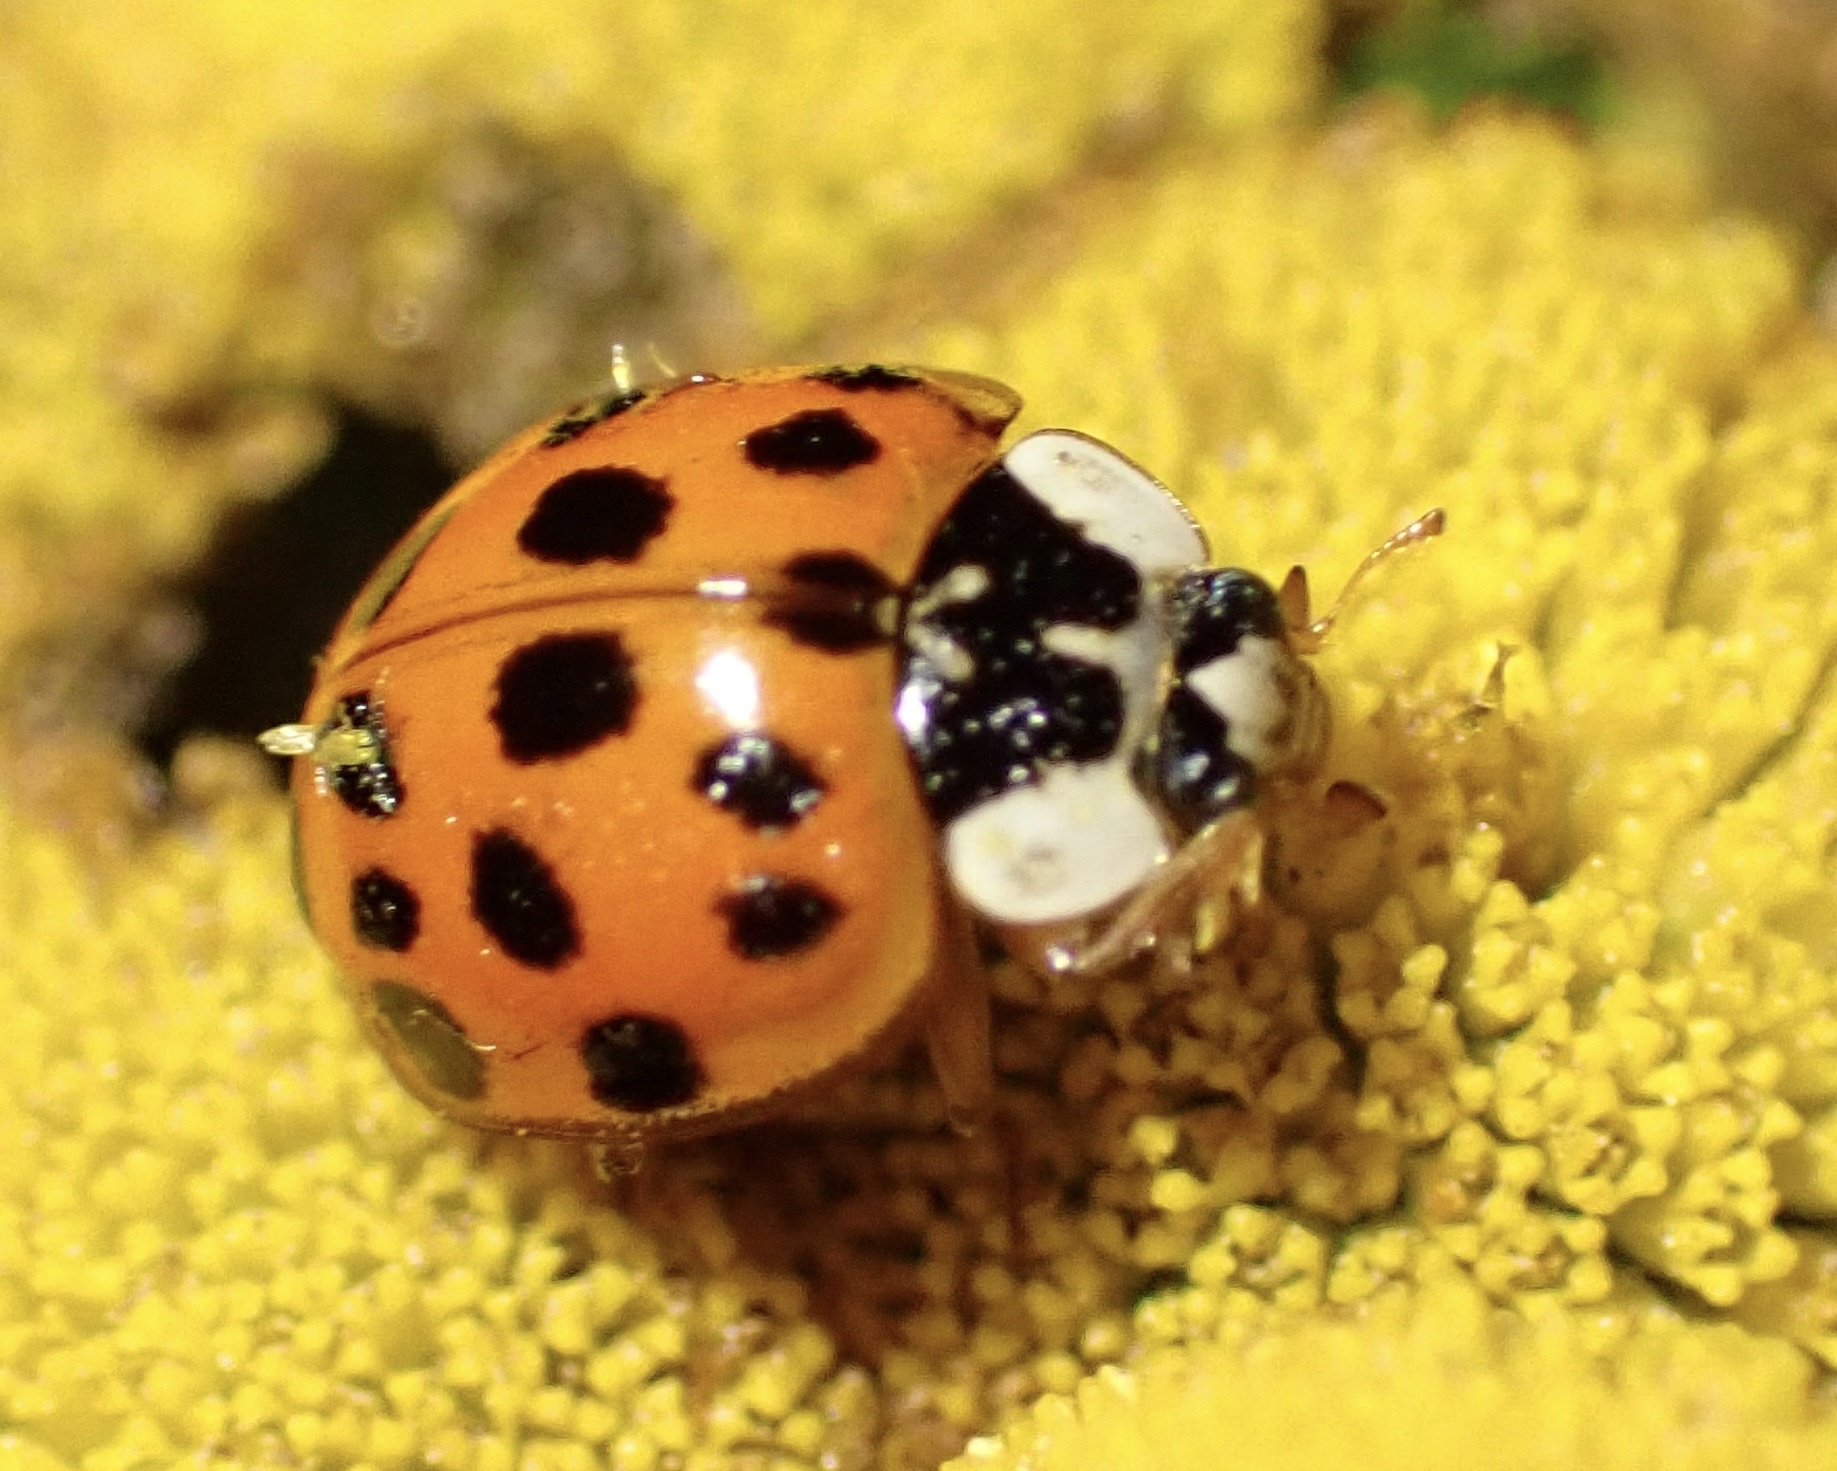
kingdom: Animalia
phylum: Arthropoda
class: Insecta
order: Coleoptera
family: Coccinellidae
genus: Harmonia
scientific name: Harmonia axyridis
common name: Harlequin ladybird
